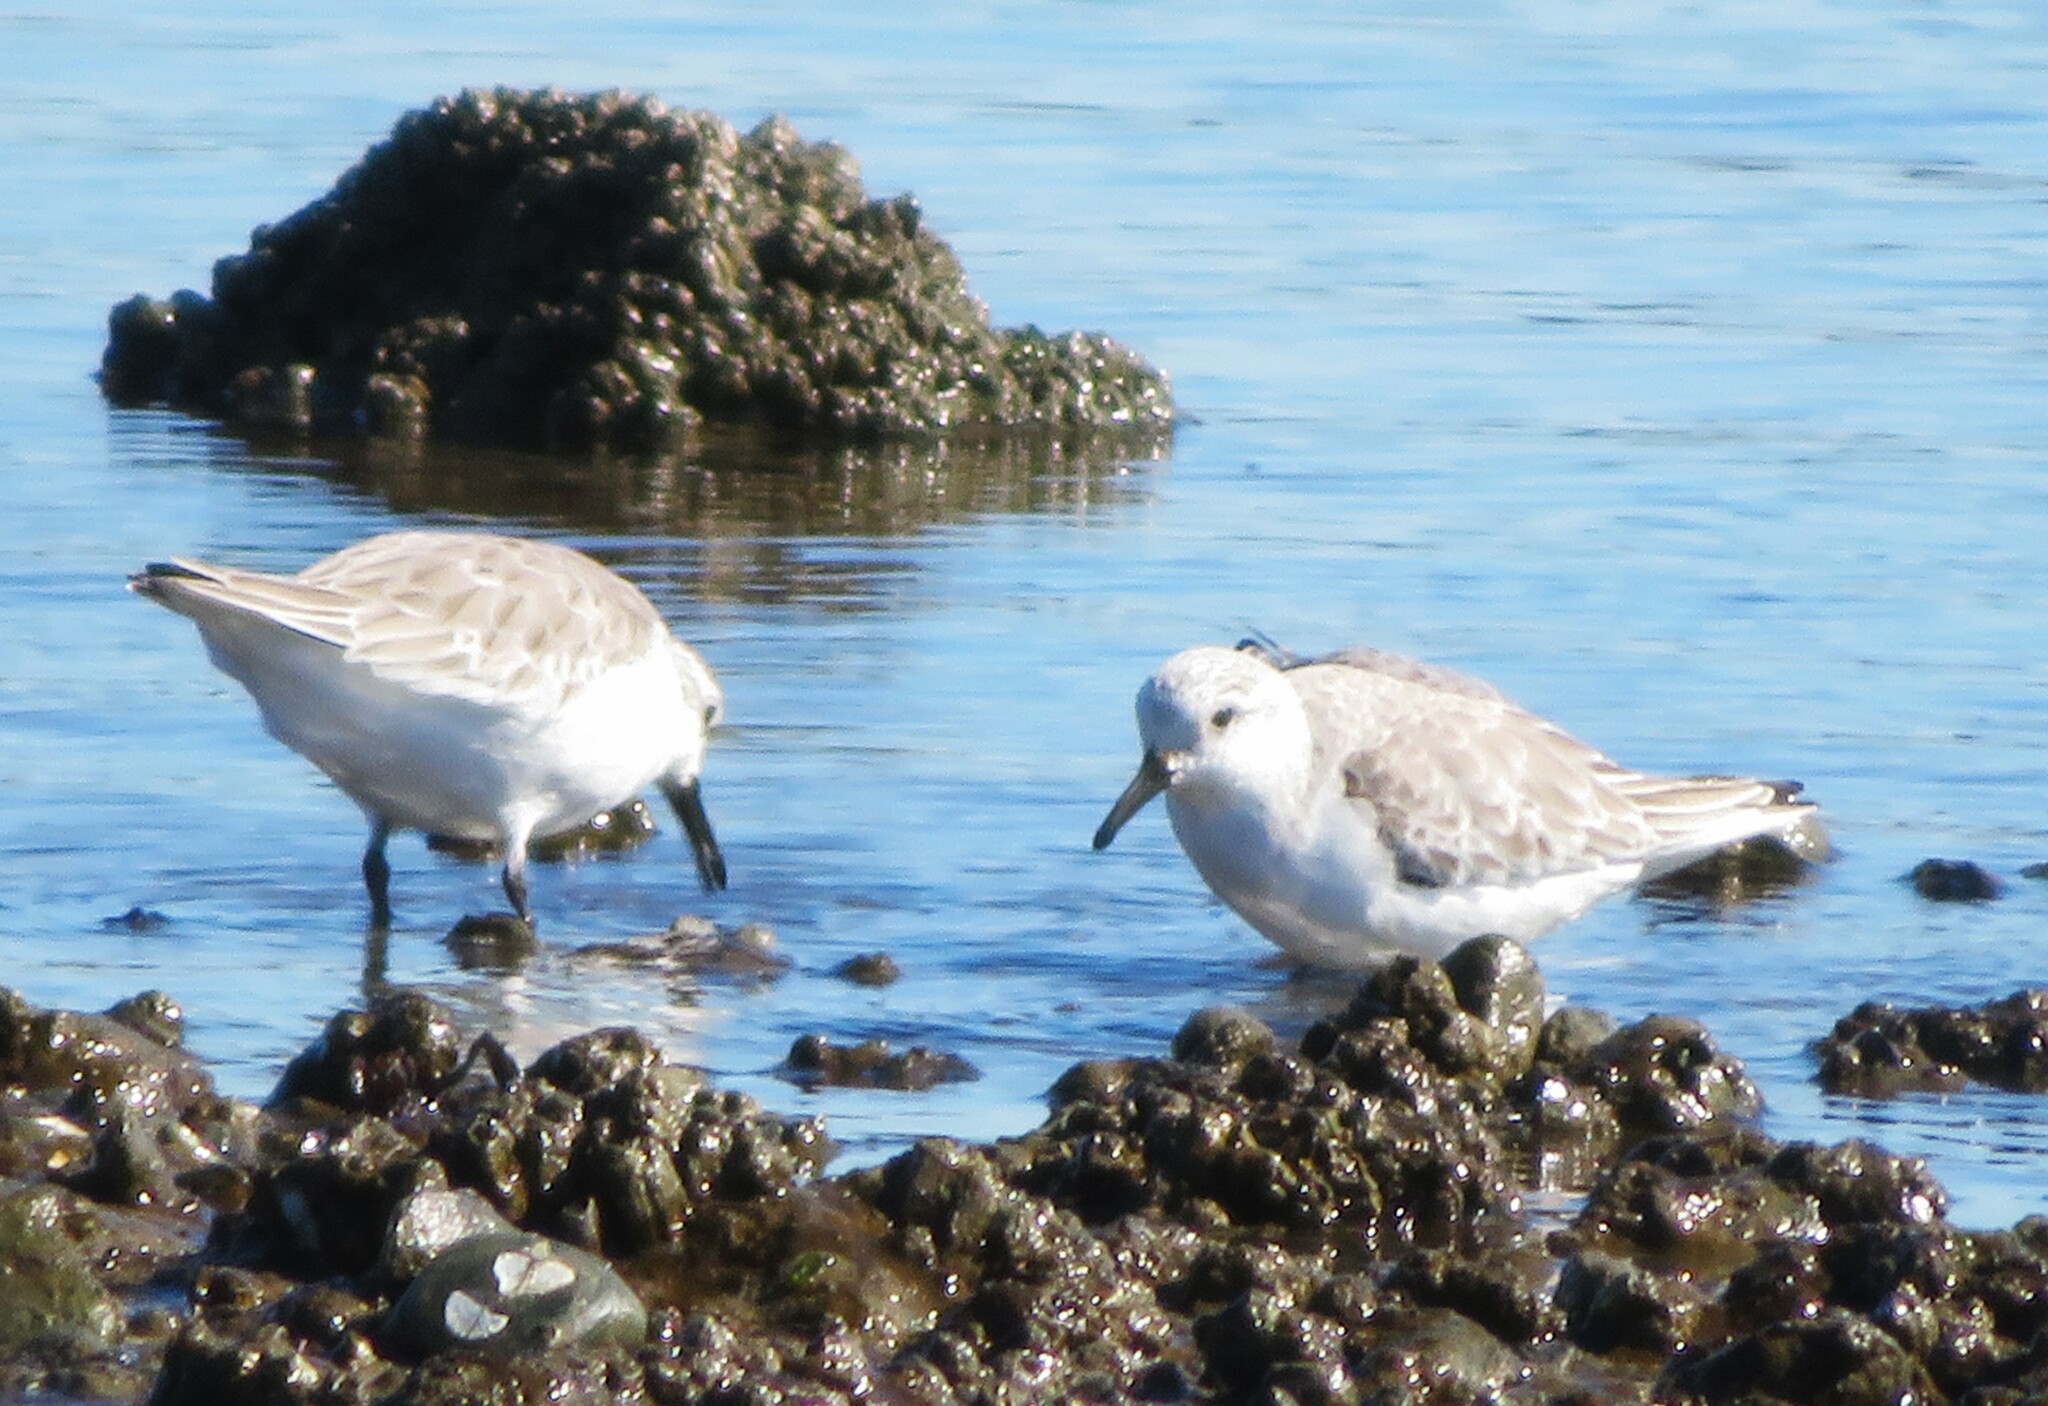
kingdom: Animalia
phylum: Chordata
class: Aves
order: Charadriiformes
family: Scolopacidae
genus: Calidris
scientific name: Calidris alba
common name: Sanderling
